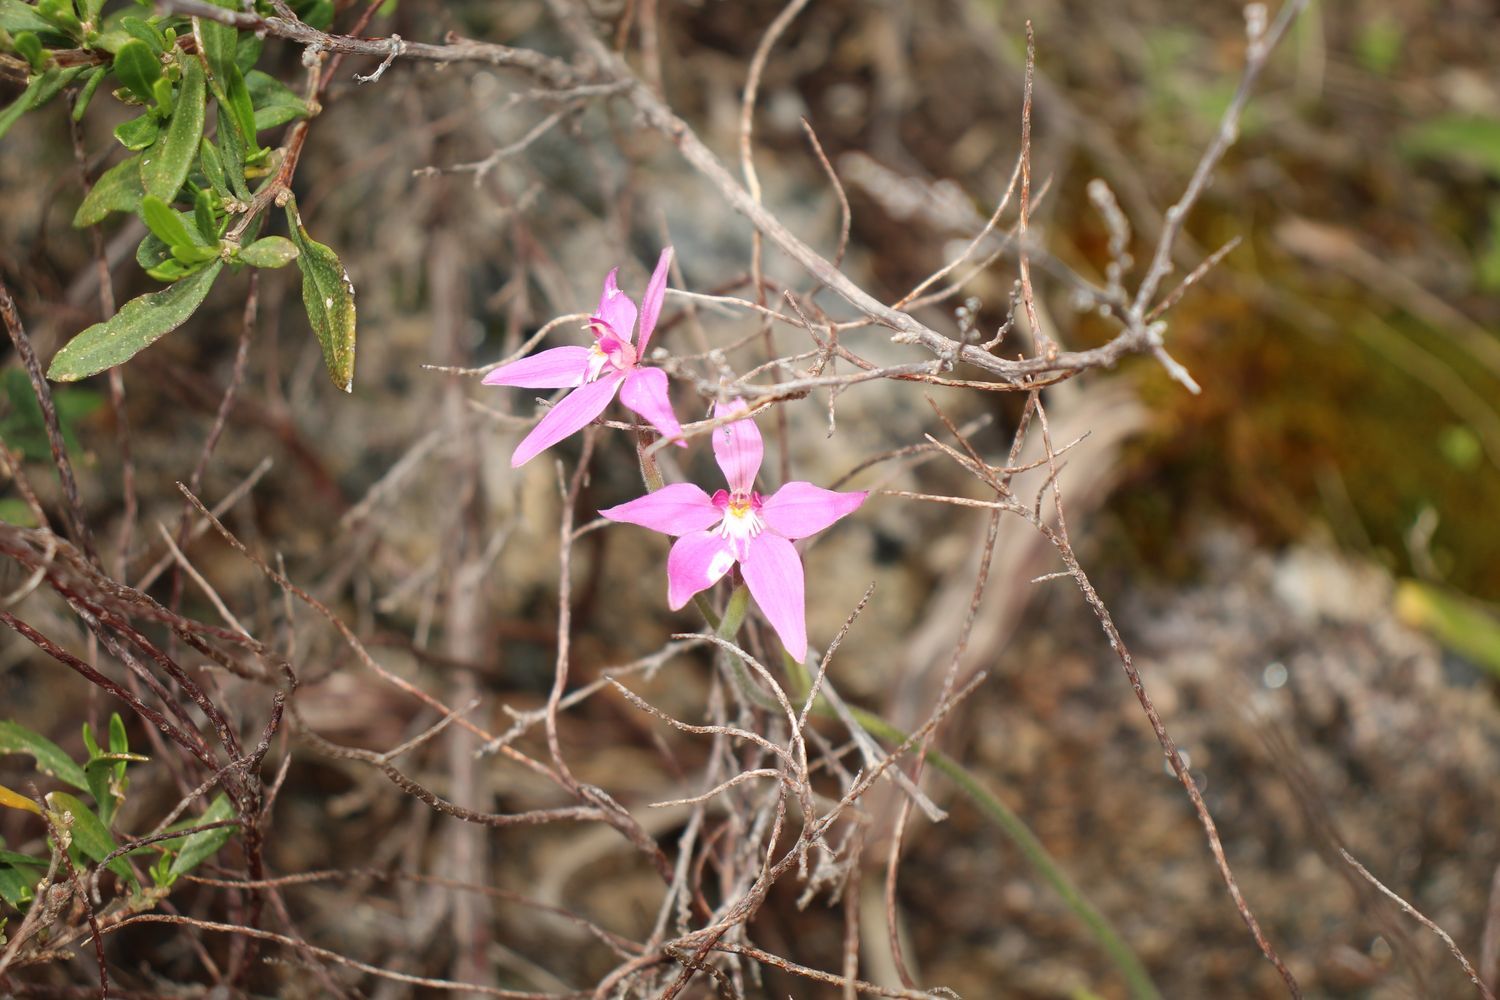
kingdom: Plantae
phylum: Tracheophyta
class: Liliopsida
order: Asparagales
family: Orchidaceae
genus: Caladenia
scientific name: Caladenia latifolia
